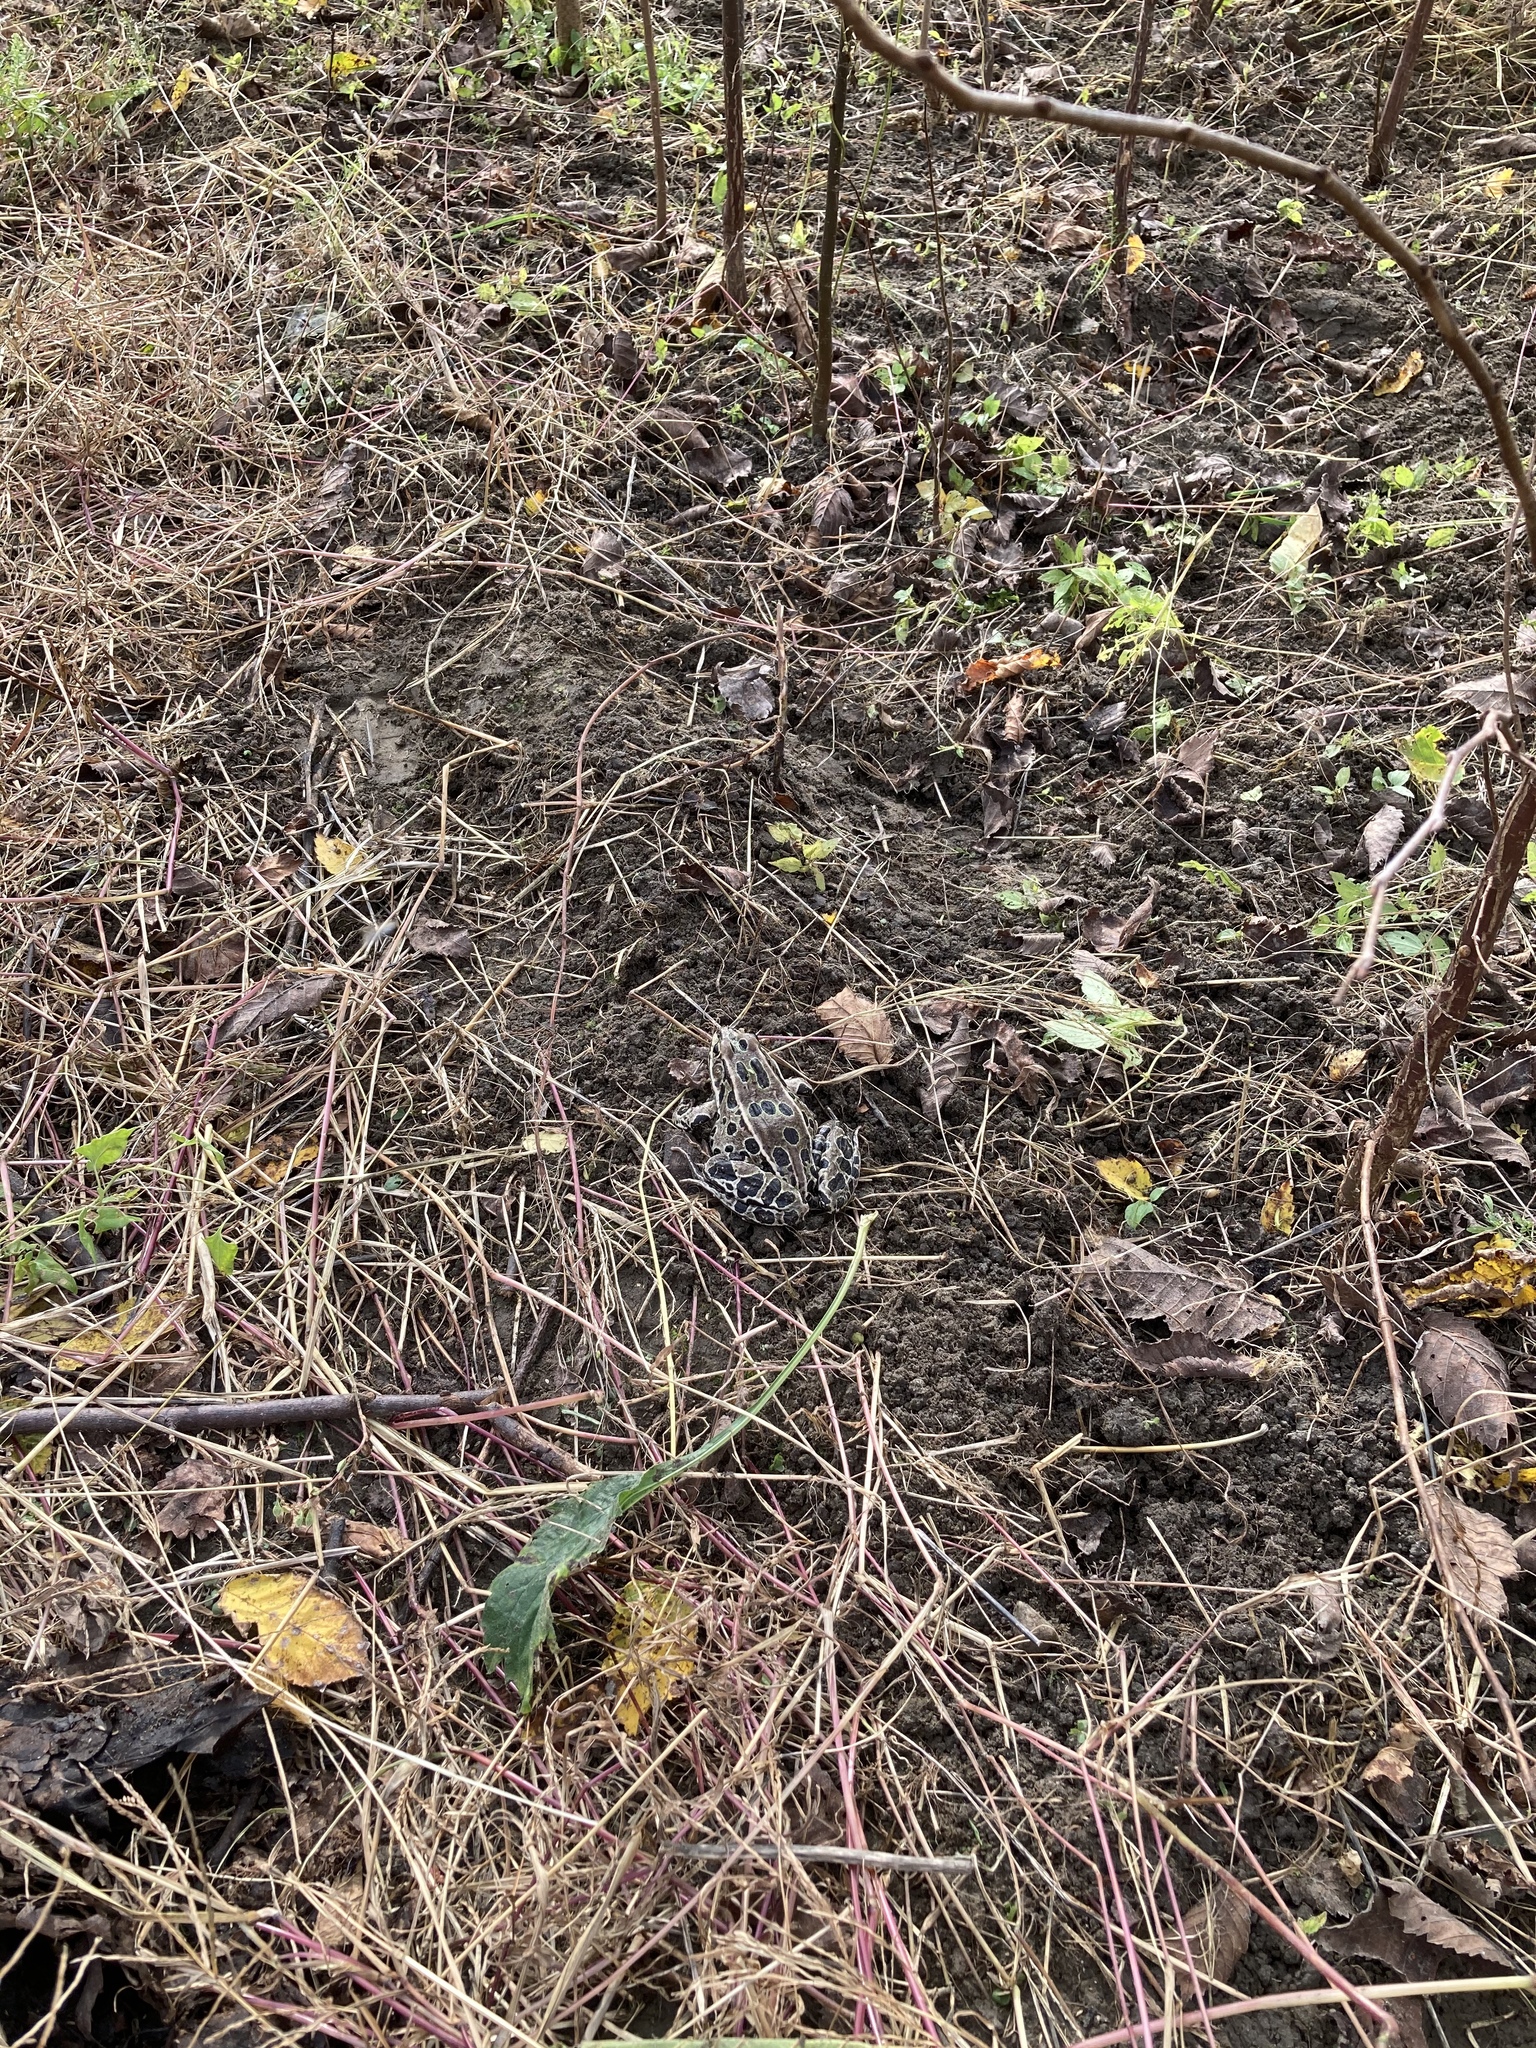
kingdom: Animalia
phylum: Chordata
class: Amphibia
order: Anura
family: Ranidae
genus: Lithobates
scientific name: Lithobates pipiens
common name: Northern leopard frog
